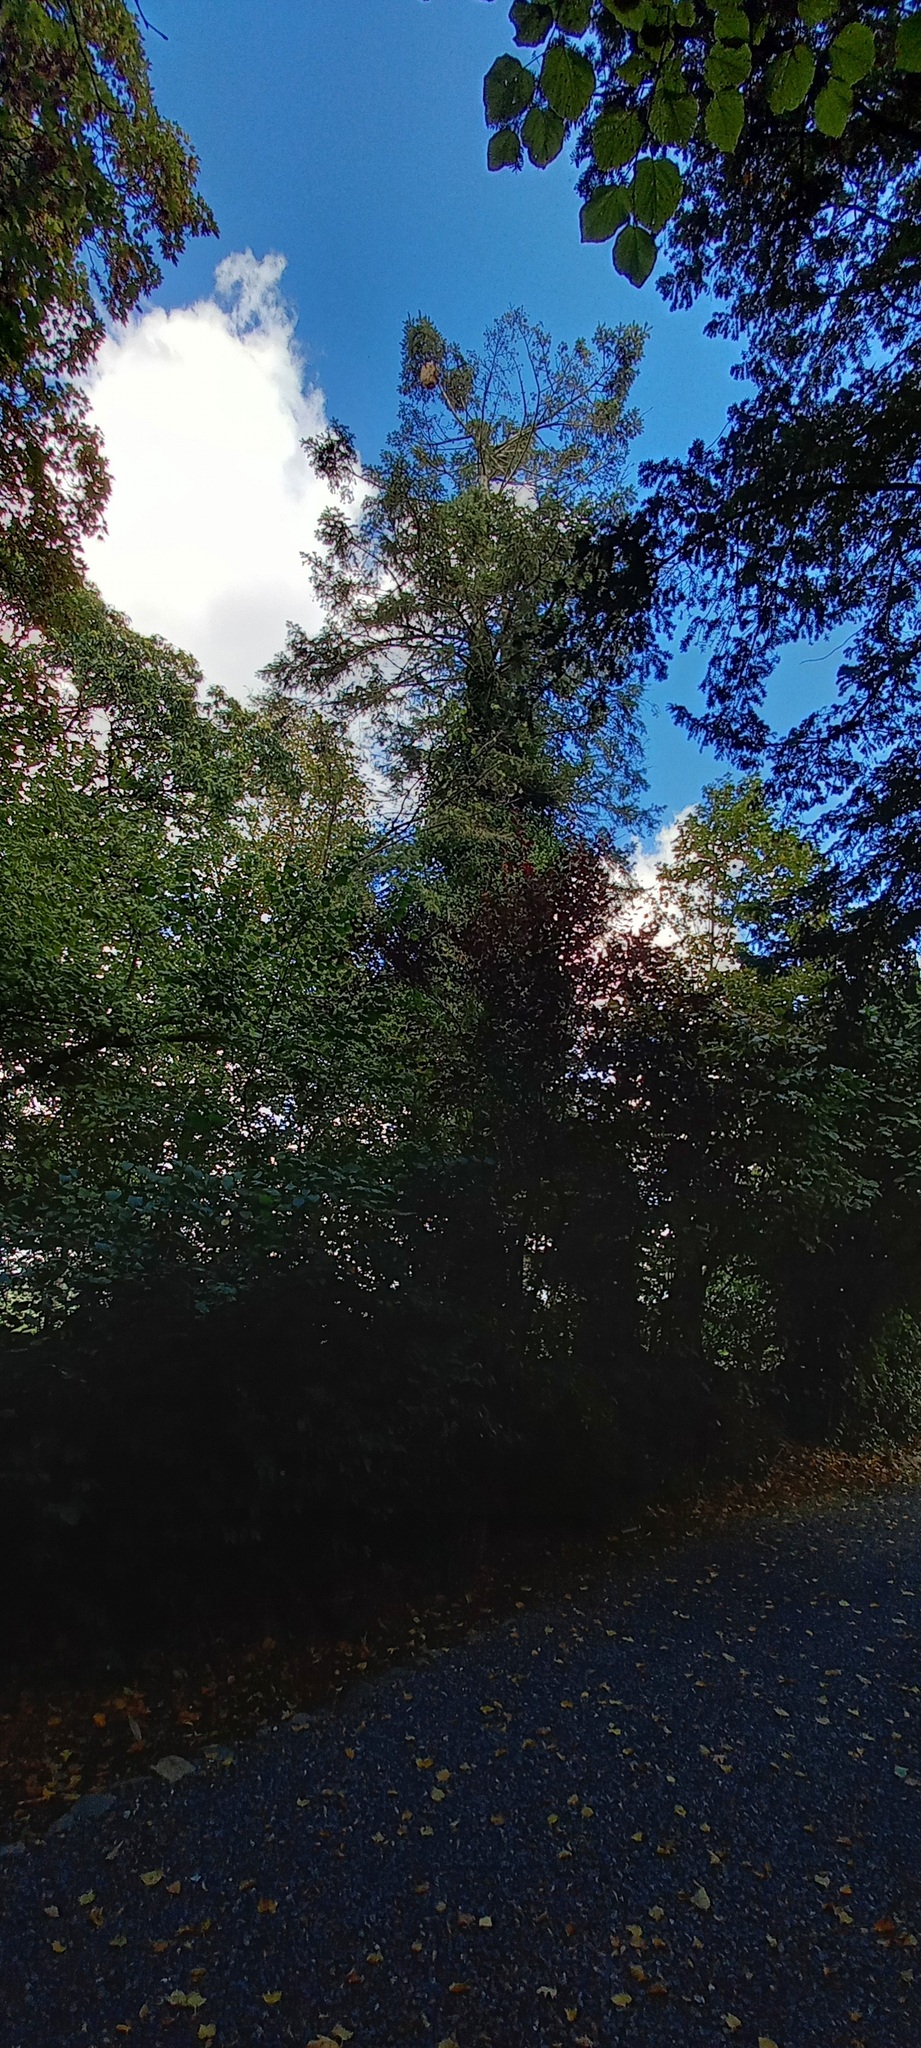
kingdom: Animalia
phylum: Arthropoda
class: Insecta
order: Hymenoptera
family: Vespidae
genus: Vespa
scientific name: Vespa velutina
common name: Asian hornet
